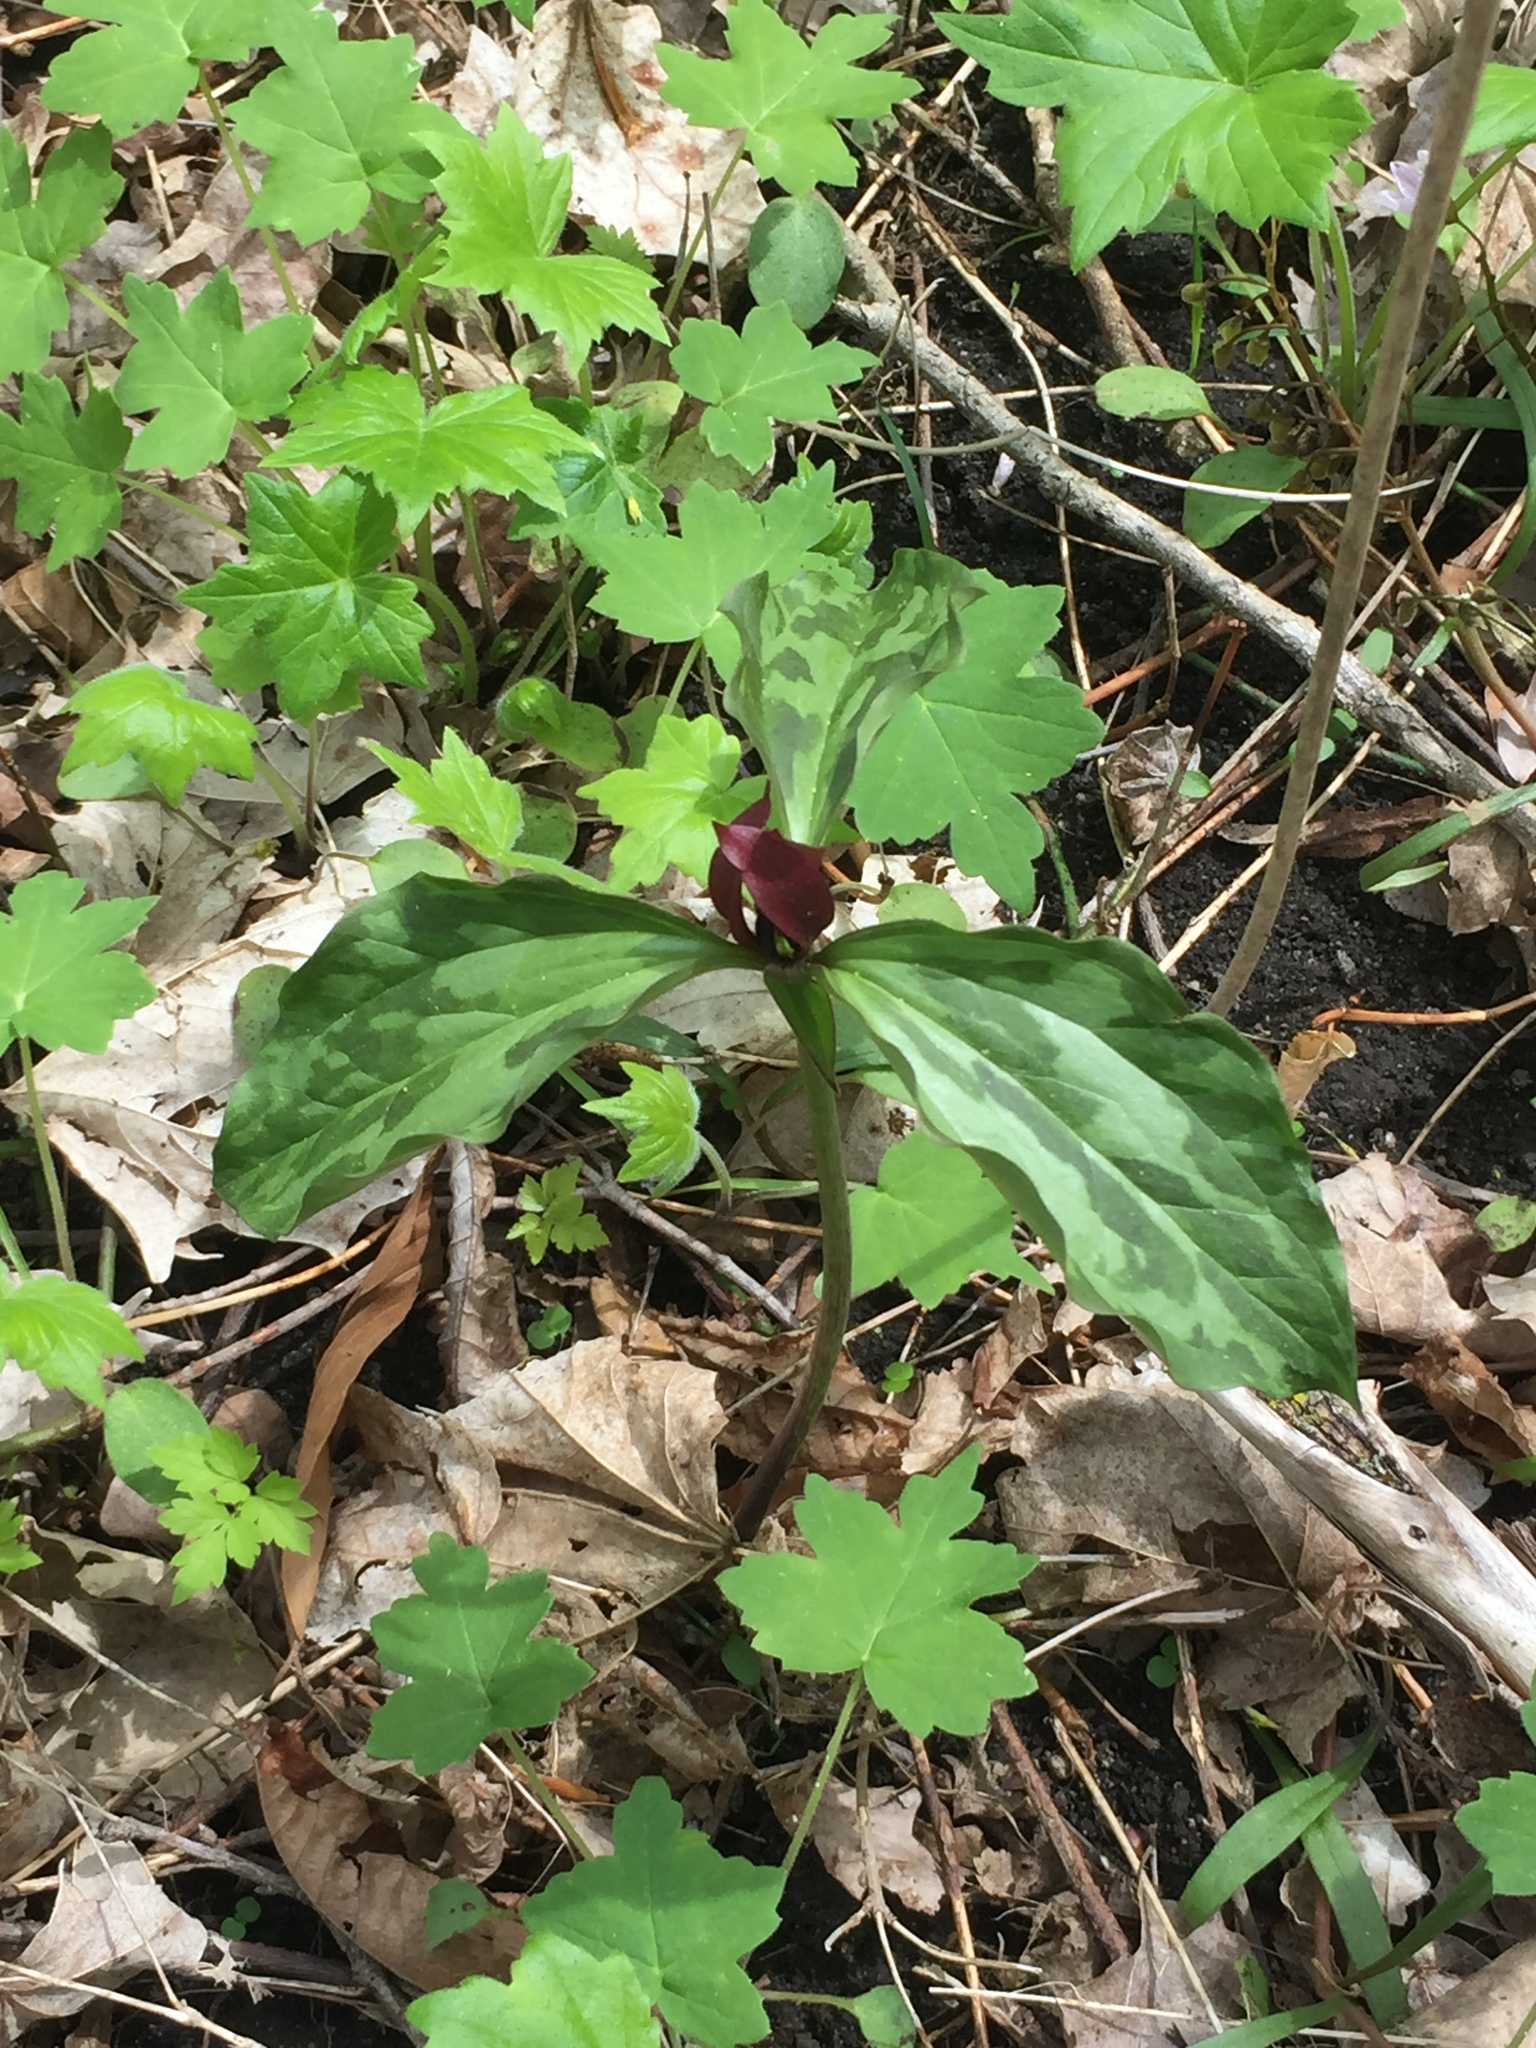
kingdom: Plantae
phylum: Tracheophyta
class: Liliopsida
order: Liliales
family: Melanthiaceae
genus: Trillium
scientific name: Trillium recurvatum
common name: Bloody butcher
